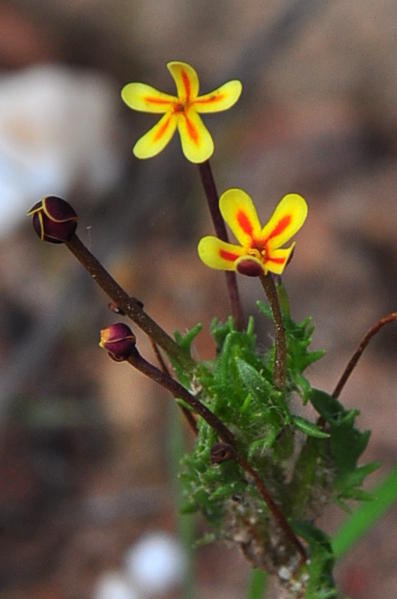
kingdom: Plantae
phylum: Tracheophyta
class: Magnoliopsida
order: Lamiales
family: Scrophulariaceae
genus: Zaluzianskya
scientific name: Zaluzianskya divaricata
